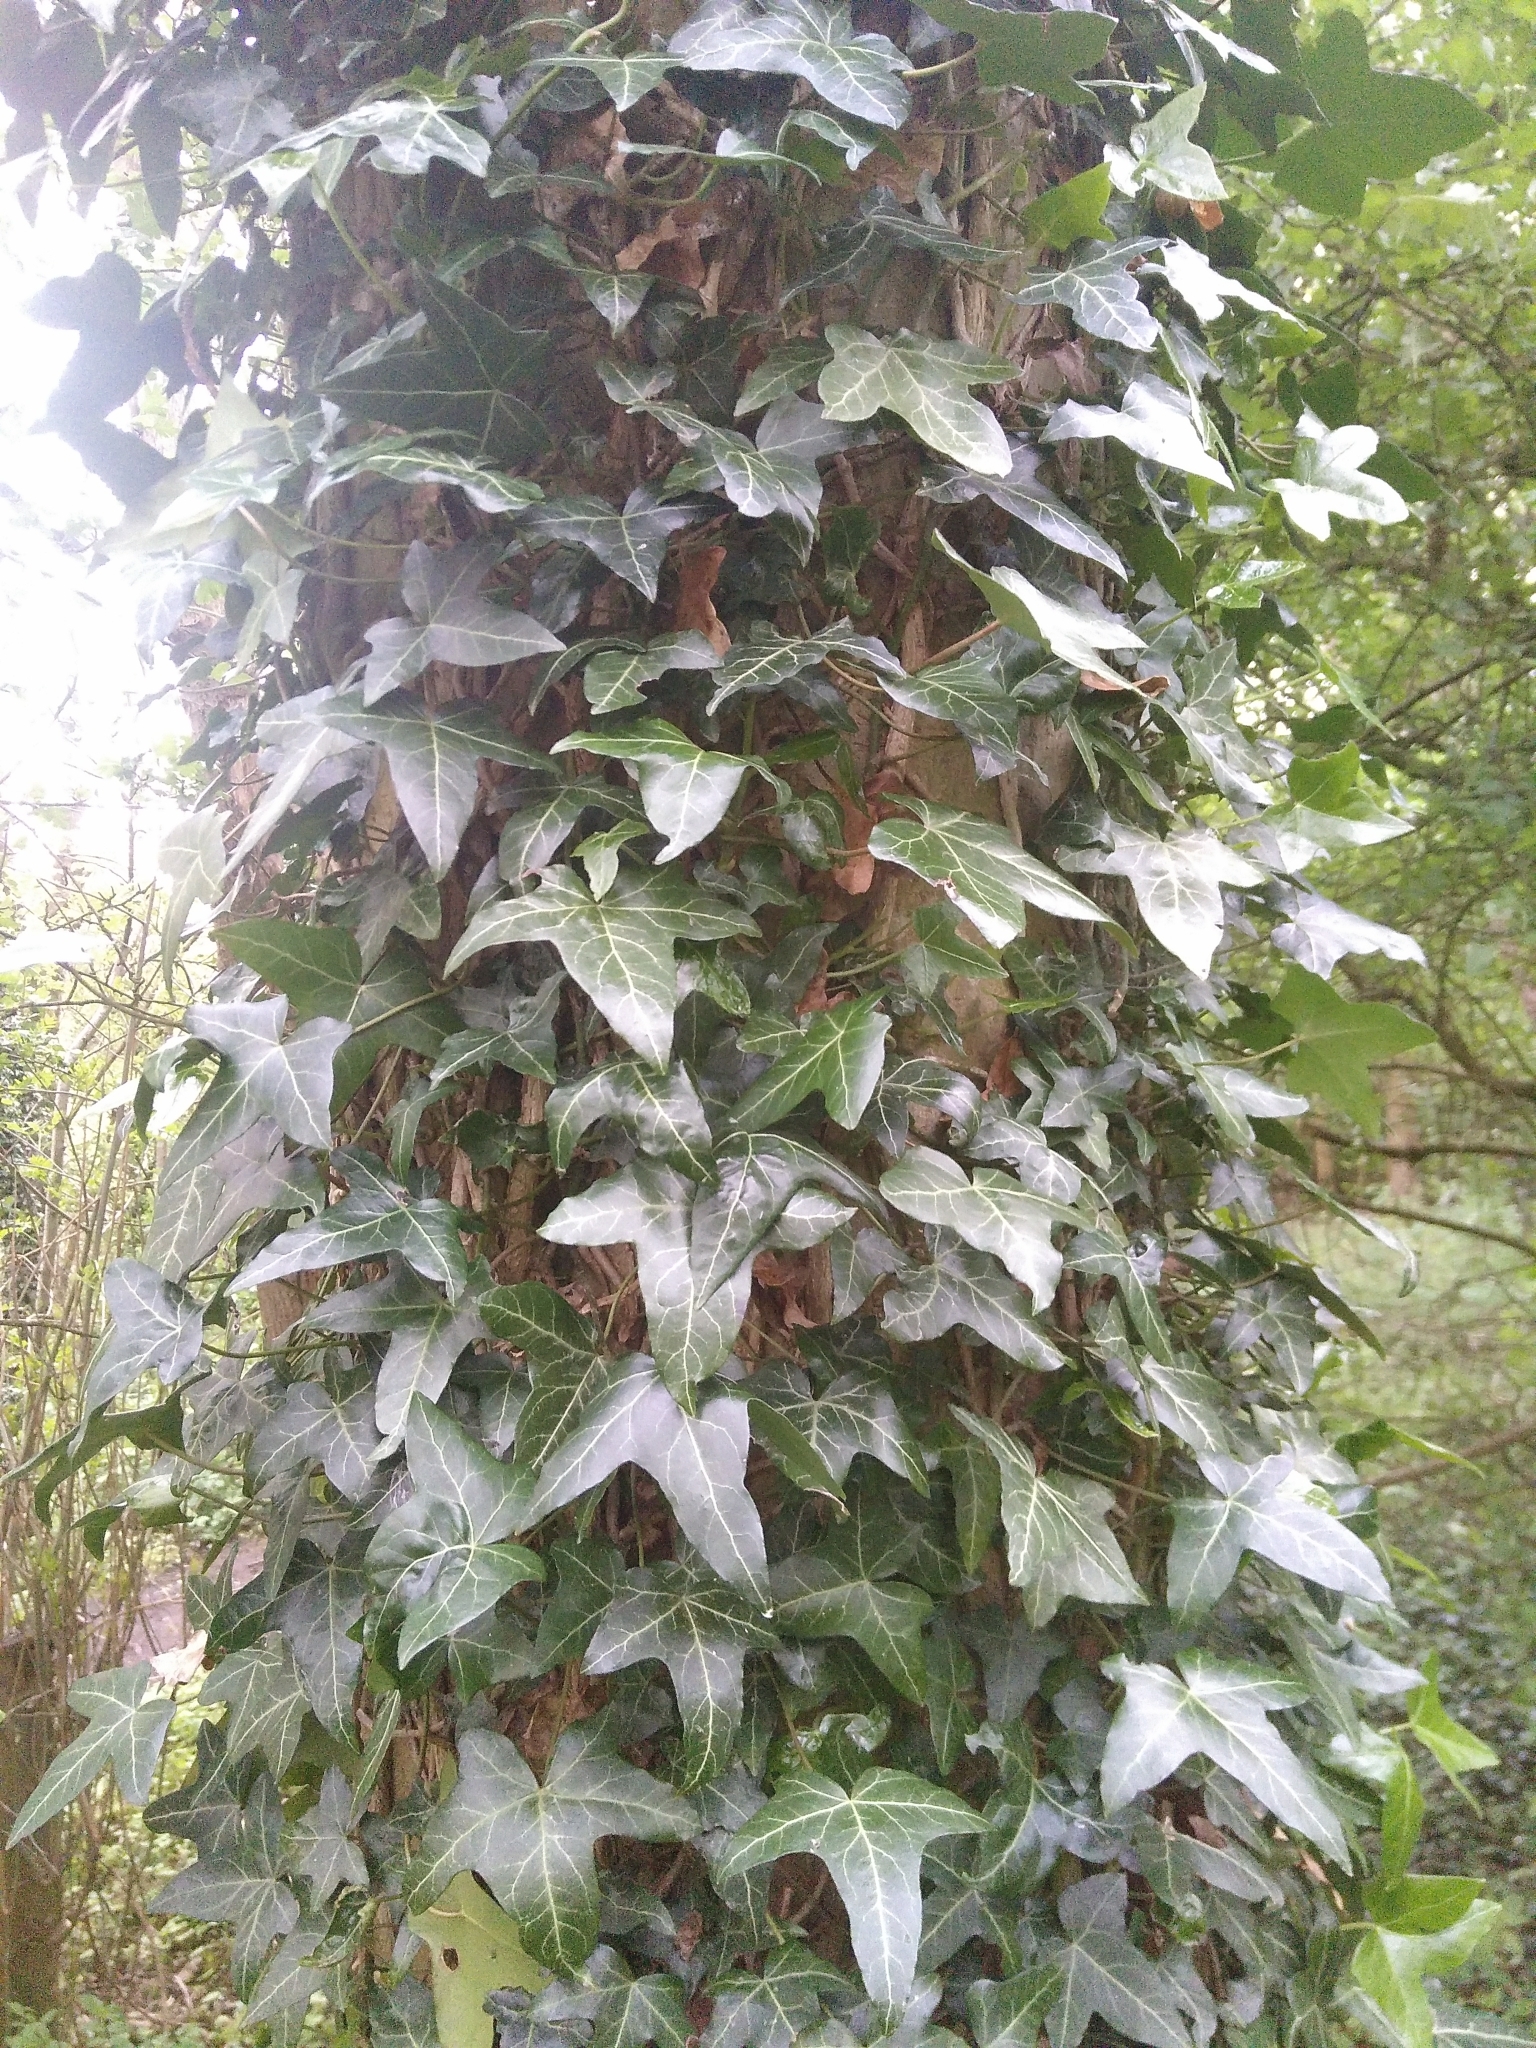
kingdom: Plantae
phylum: Tracheophyta
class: Magnoliopsida
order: Apiales
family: Araliaceae
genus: Hedera
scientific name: Hedera helix
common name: Ivy
